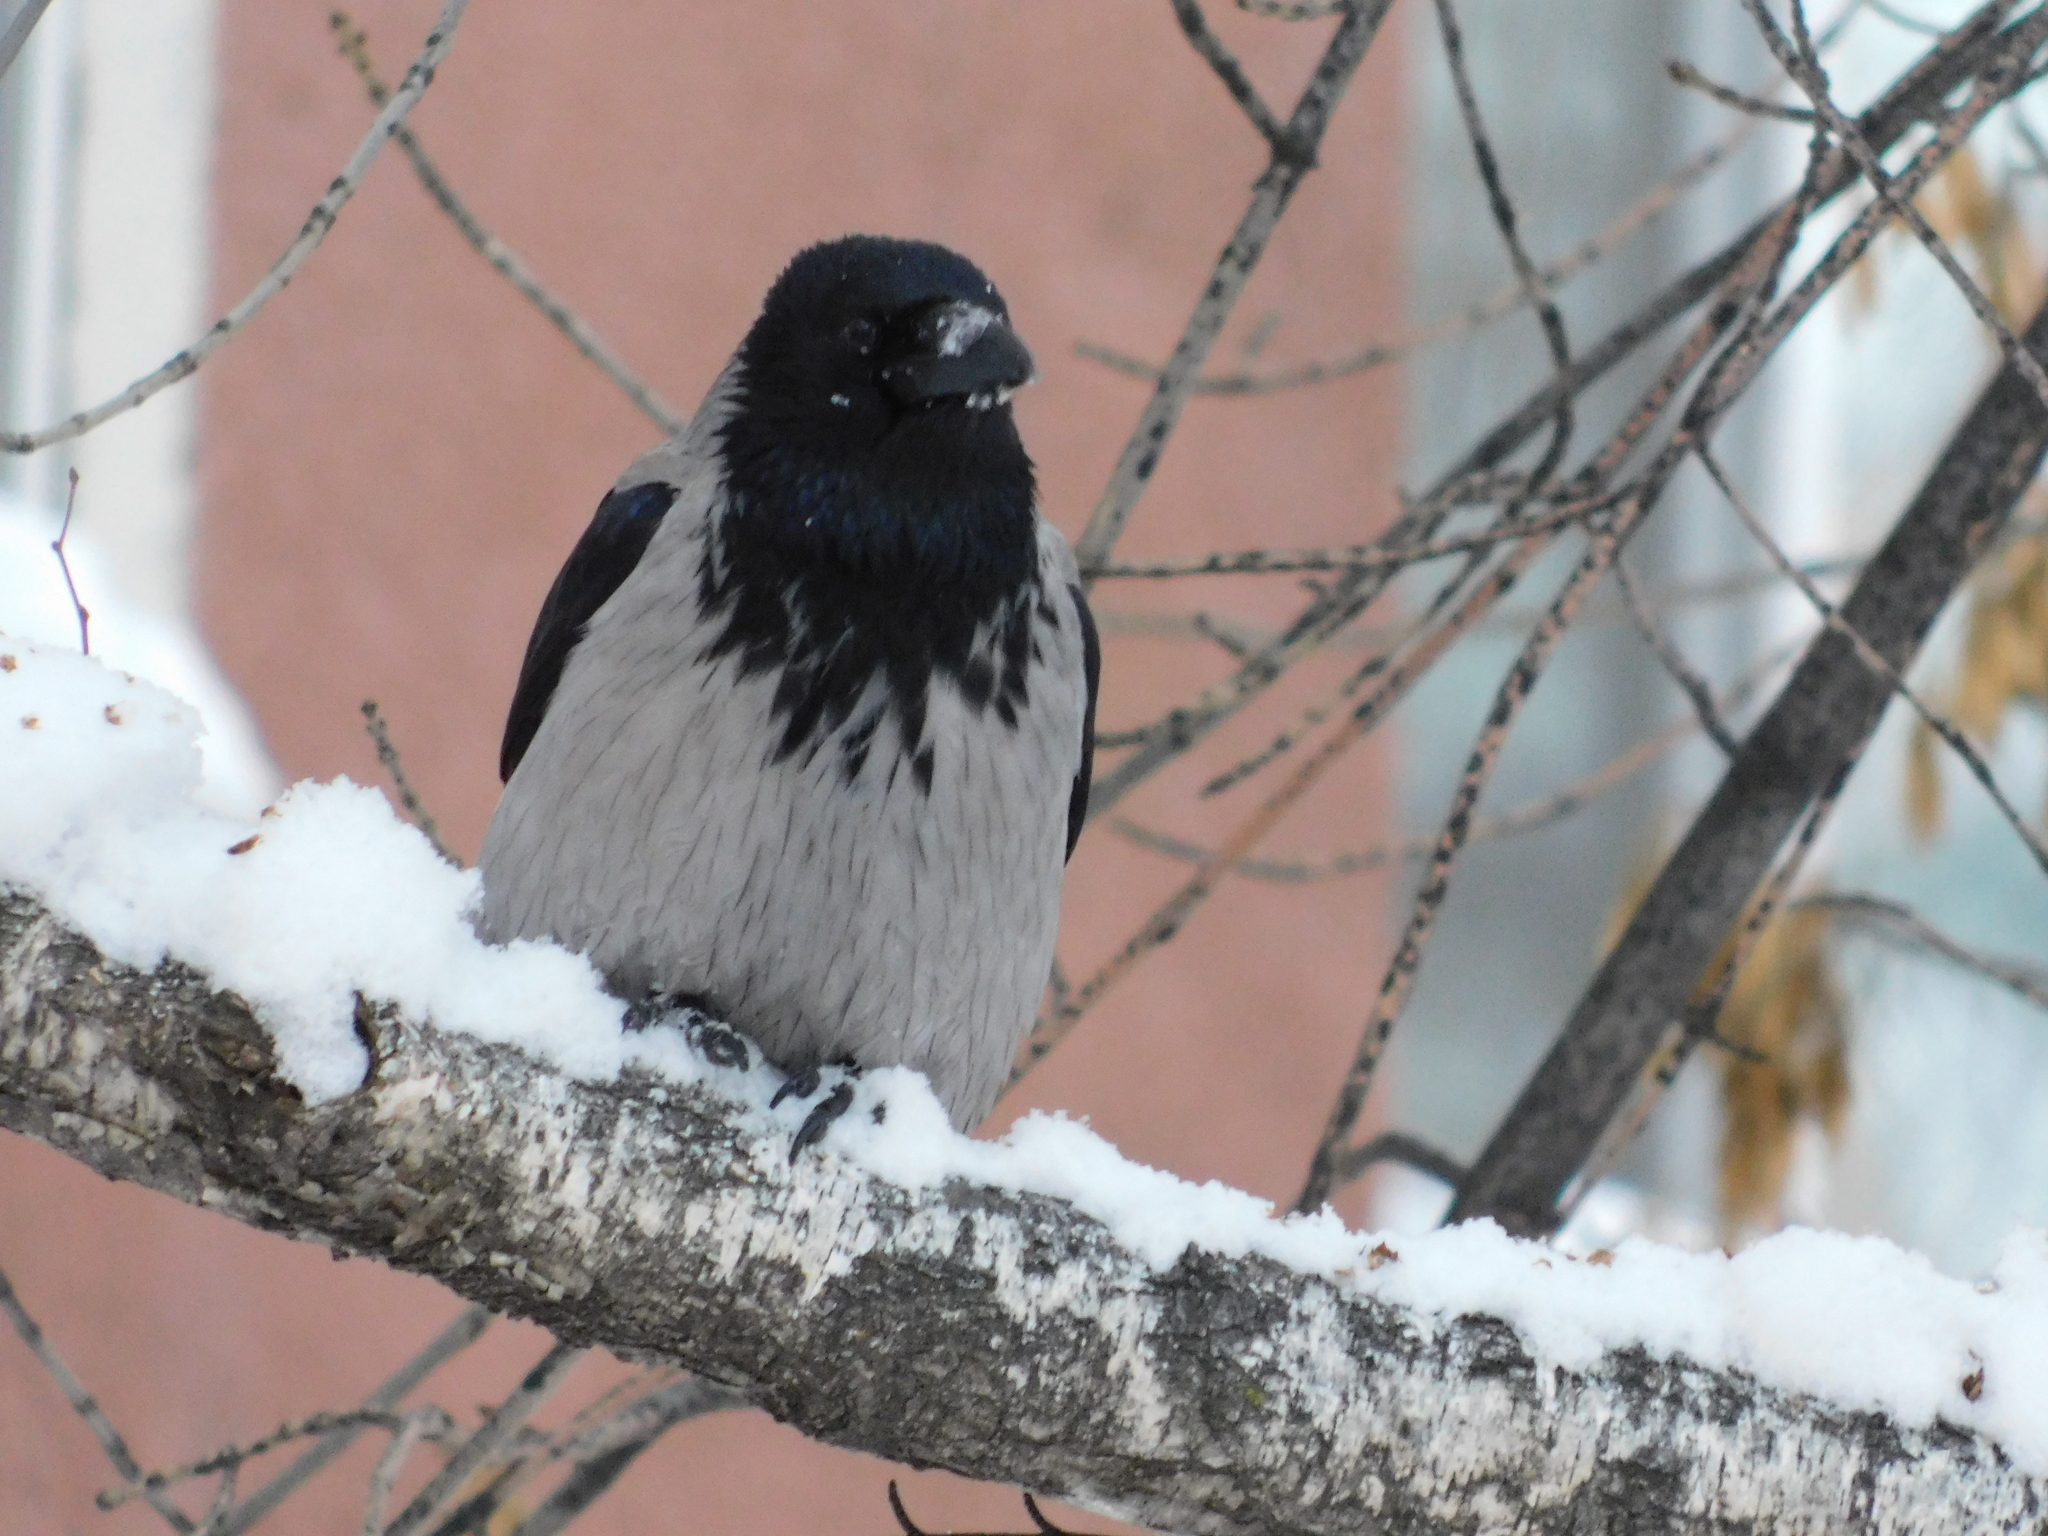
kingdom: Animalia
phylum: Chordata
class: Aves
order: Passeriformes
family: Corvidae
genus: Corvus
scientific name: Corvus cornix
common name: Hooded crow
